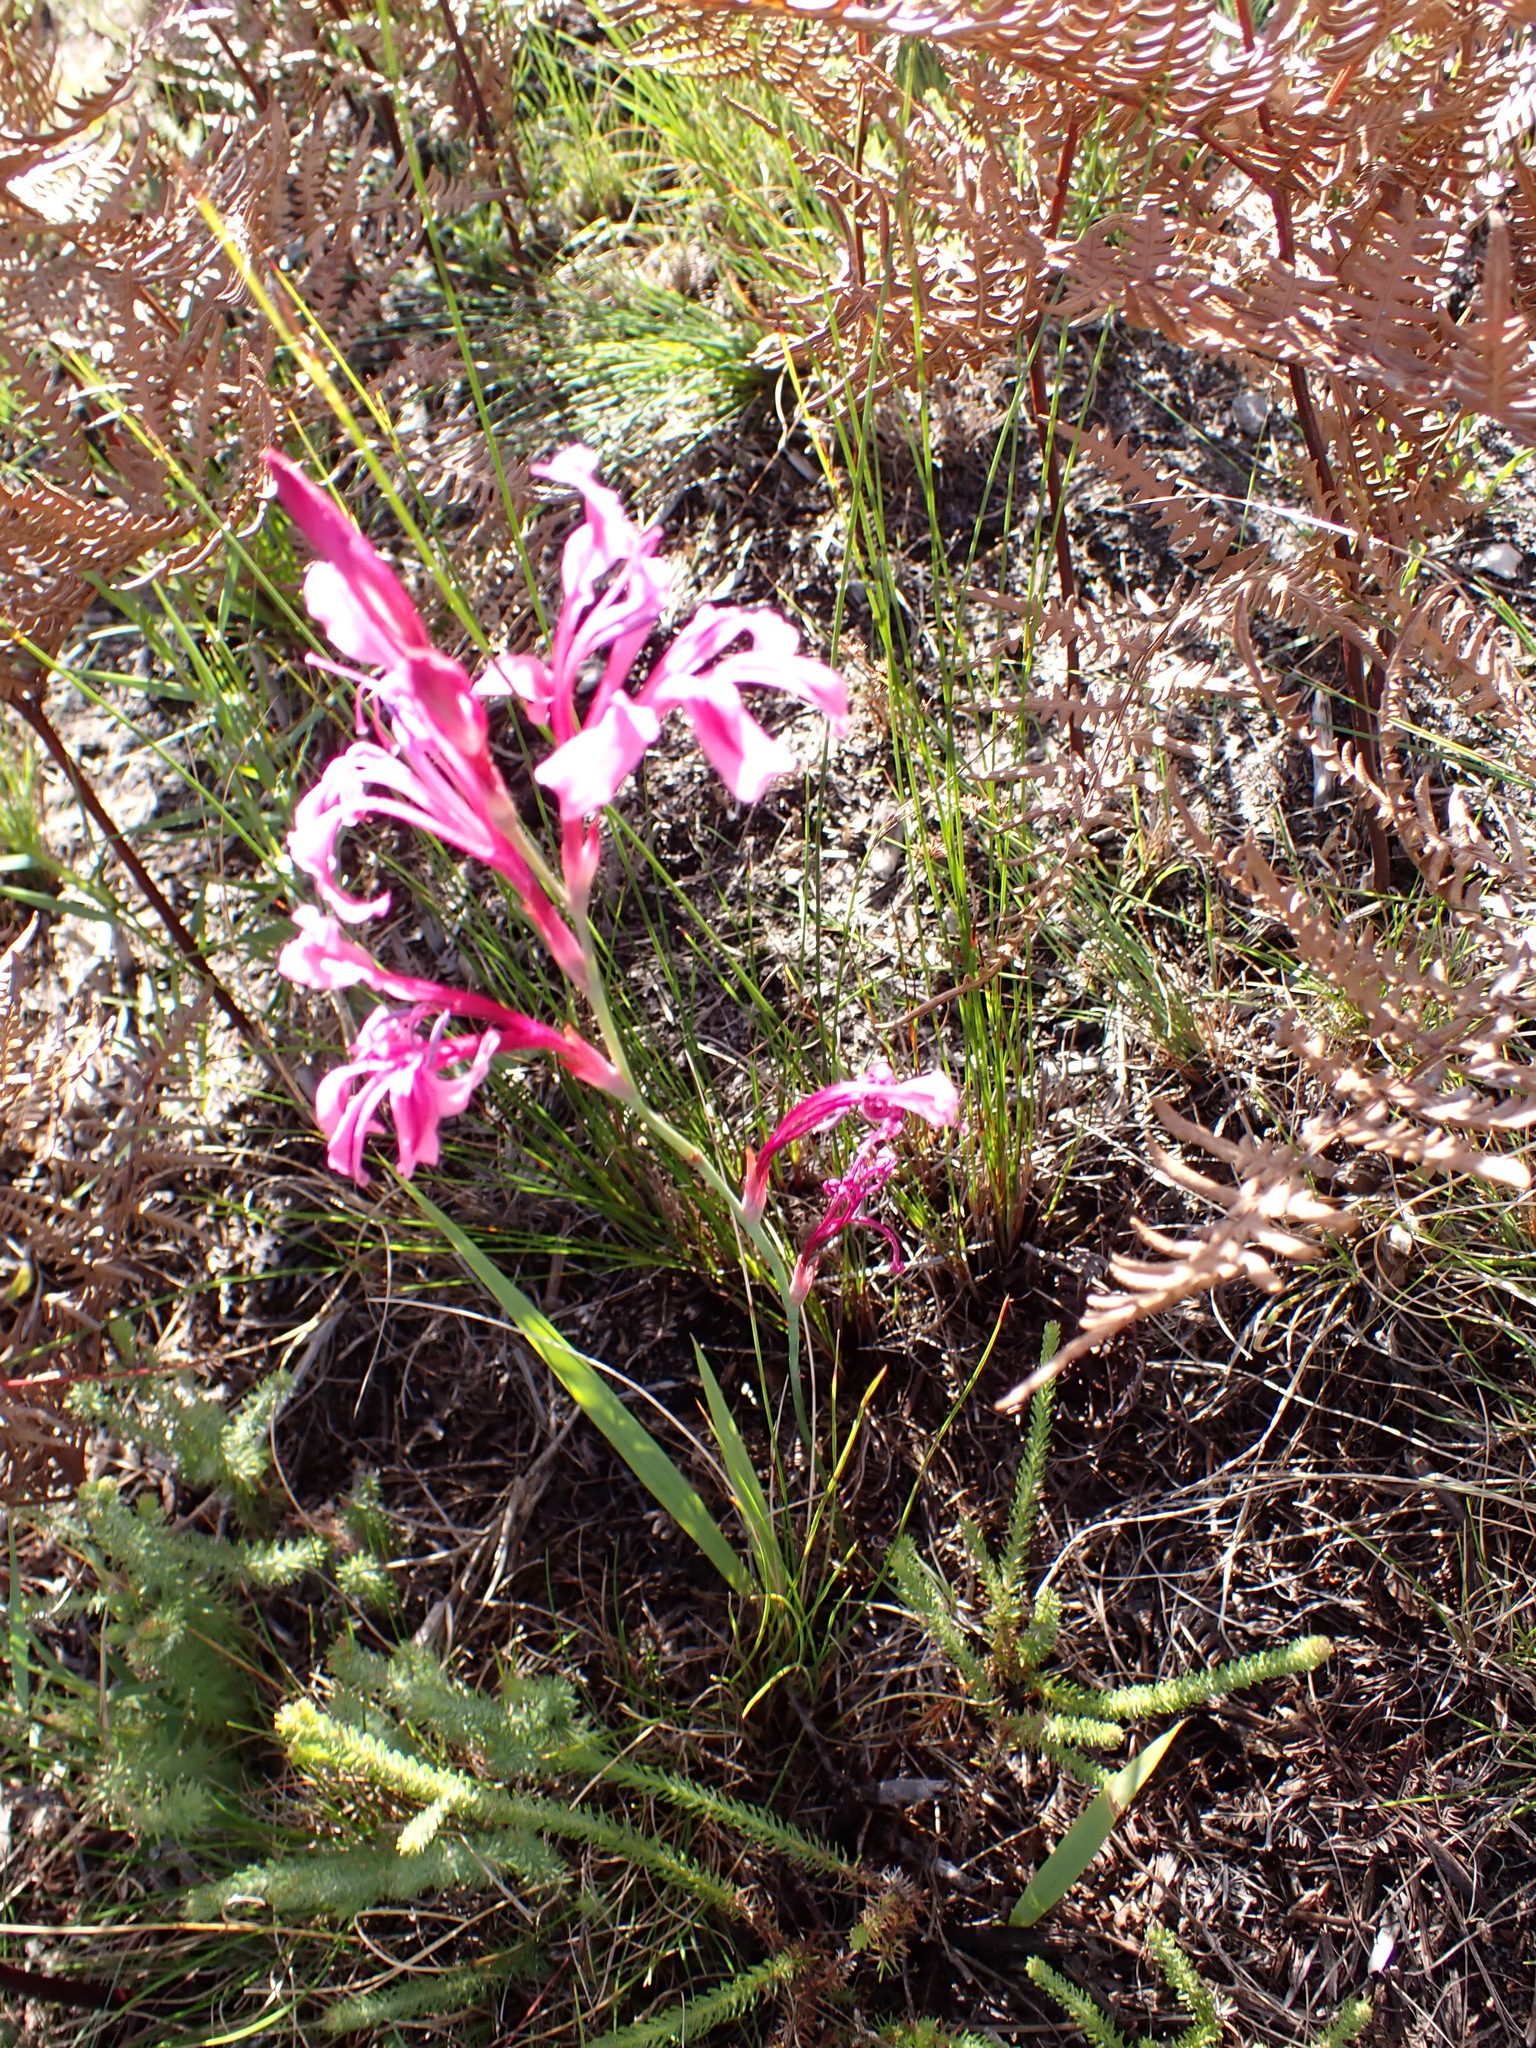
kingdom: Plantae
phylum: Tracheophyta
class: Liliopsida
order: Asparagales
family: Iridaceae
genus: Tritoniopsis
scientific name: Tritoniopsis lata
